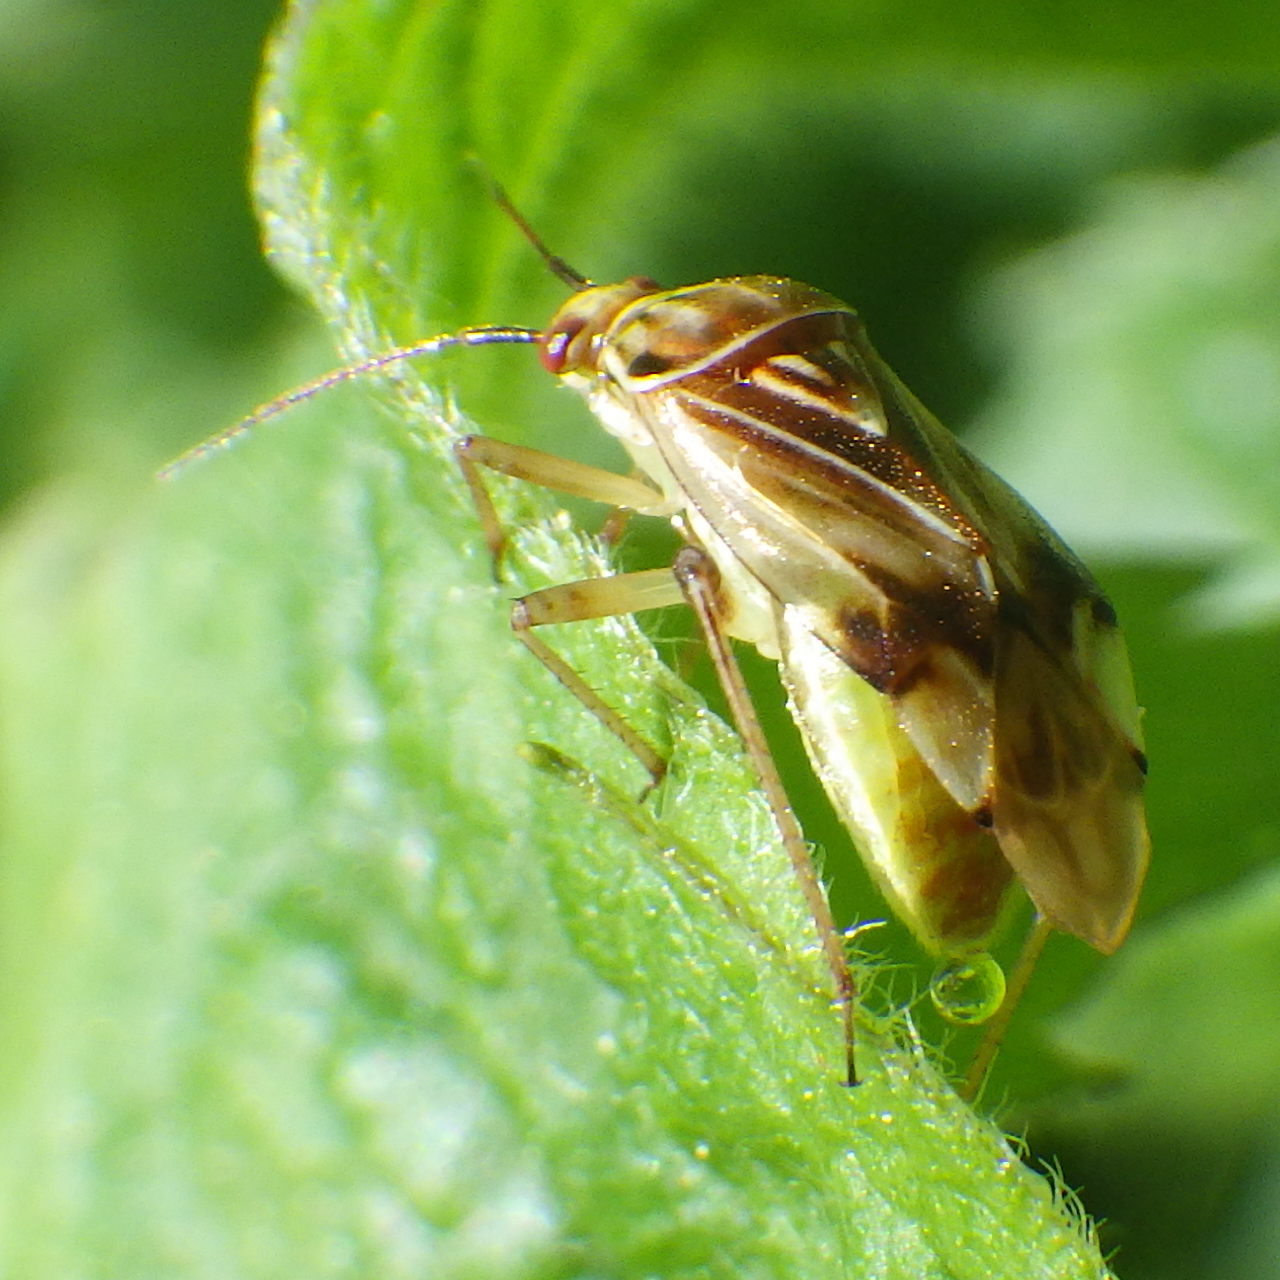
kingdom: Animalia
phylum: Arthropoda
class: Insecta
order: Hemiptera
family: Miridae
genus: Lygus
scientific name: Lygus vanduzeei
